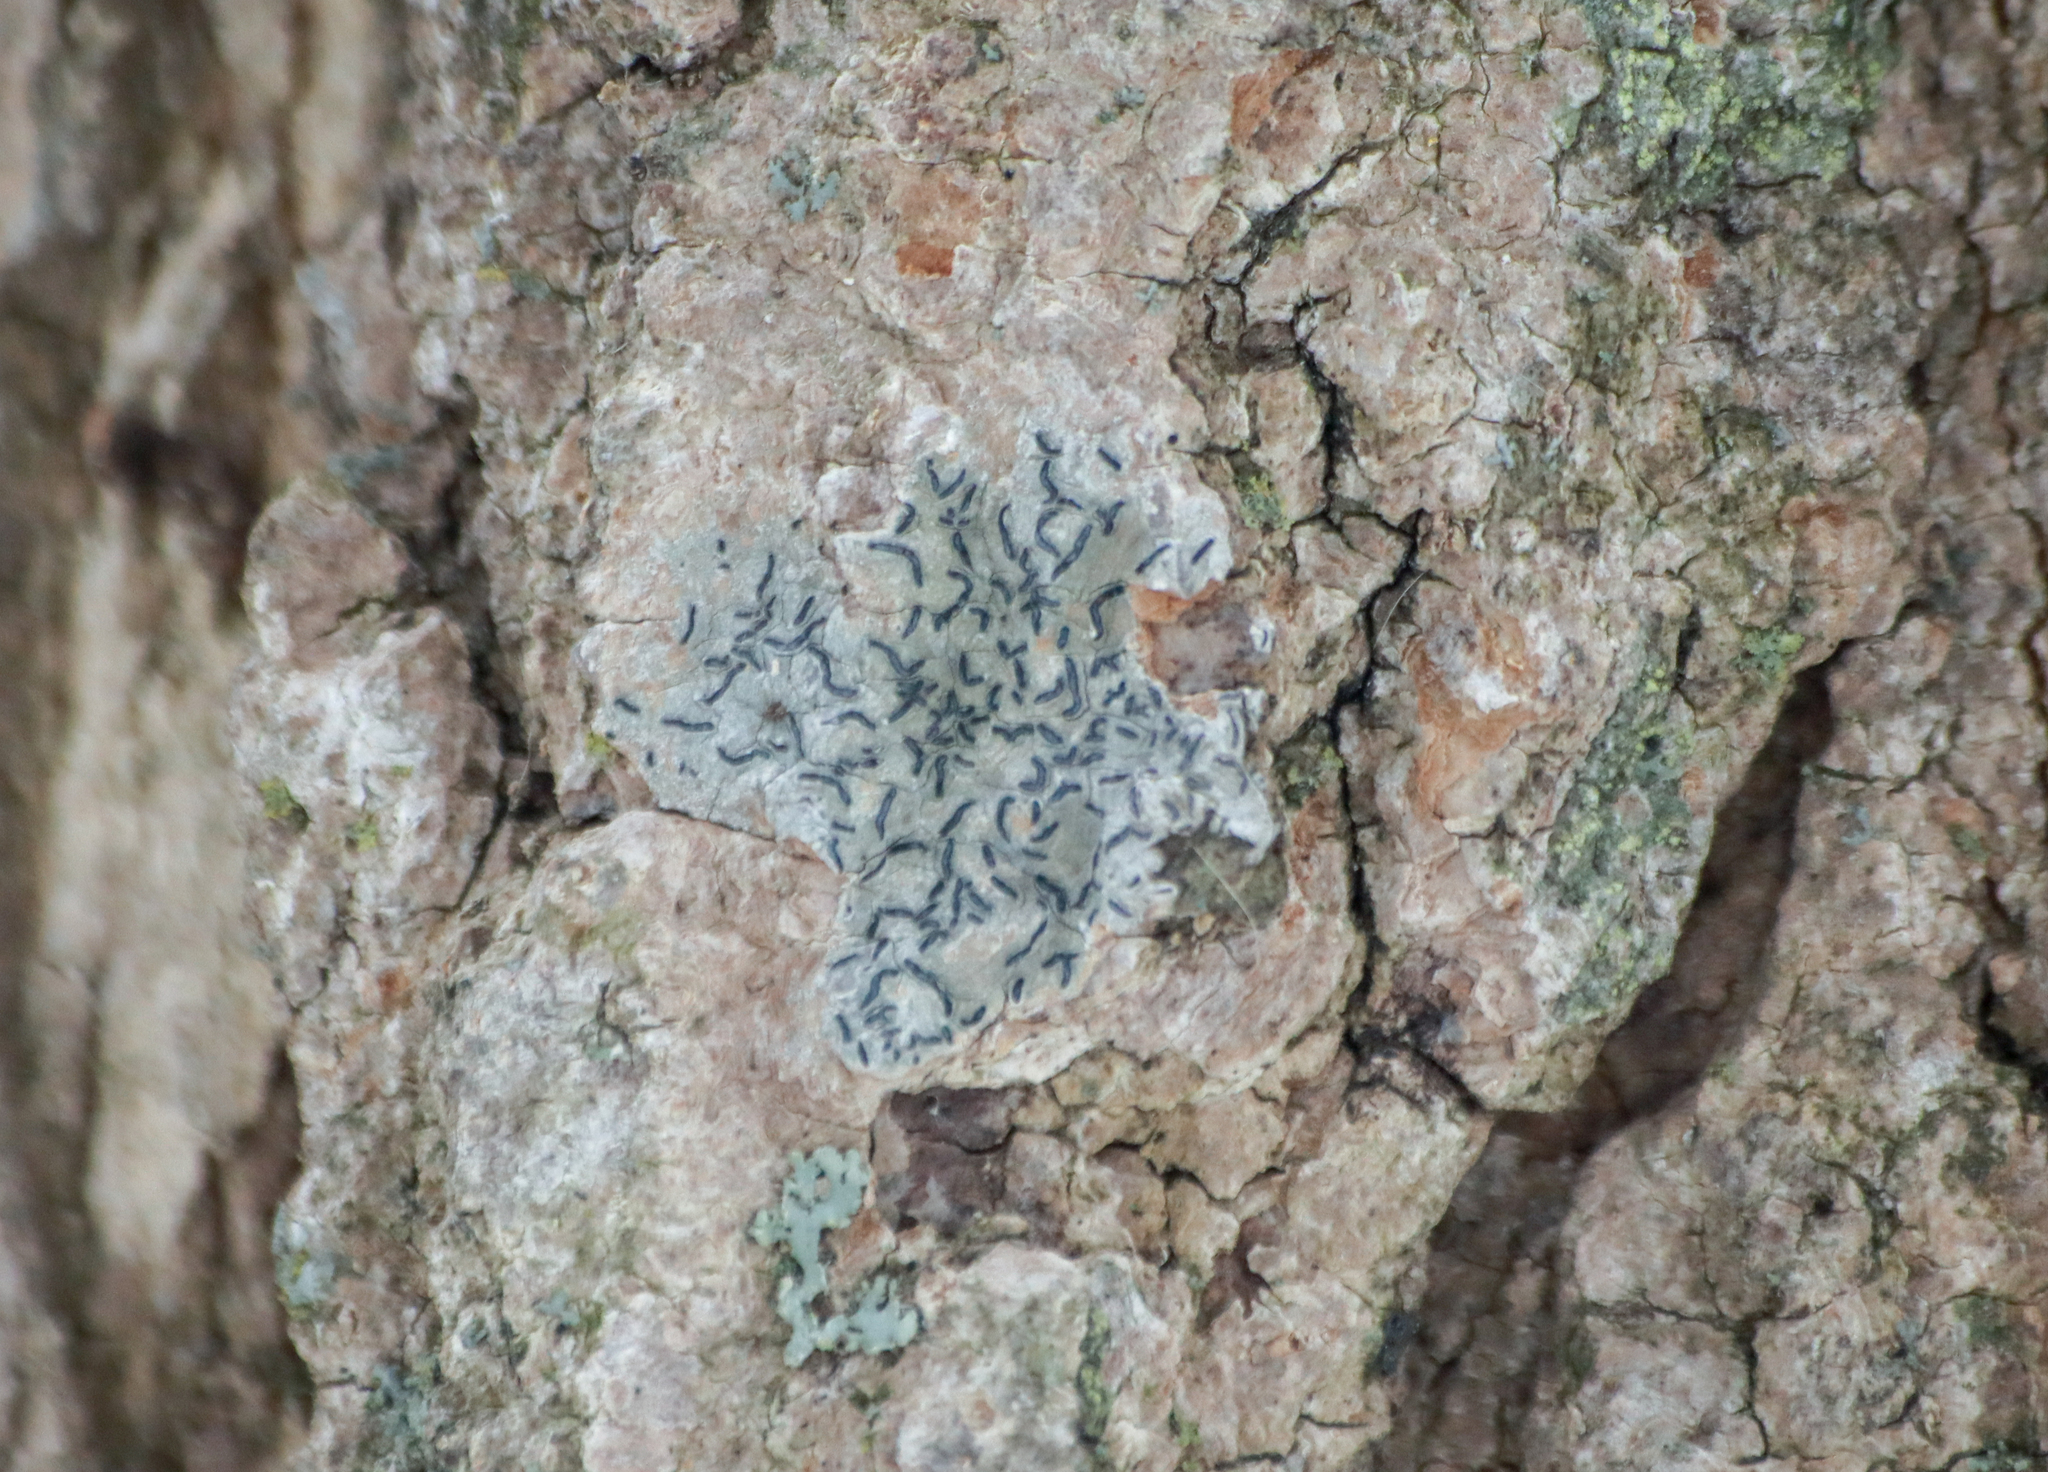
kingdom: Fungi
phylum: Ascomycota
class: Lecanoromycetes
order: Ostropales
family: Graphidaceae
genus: Graphis
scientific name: Graphis scripta
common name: Script lichen
